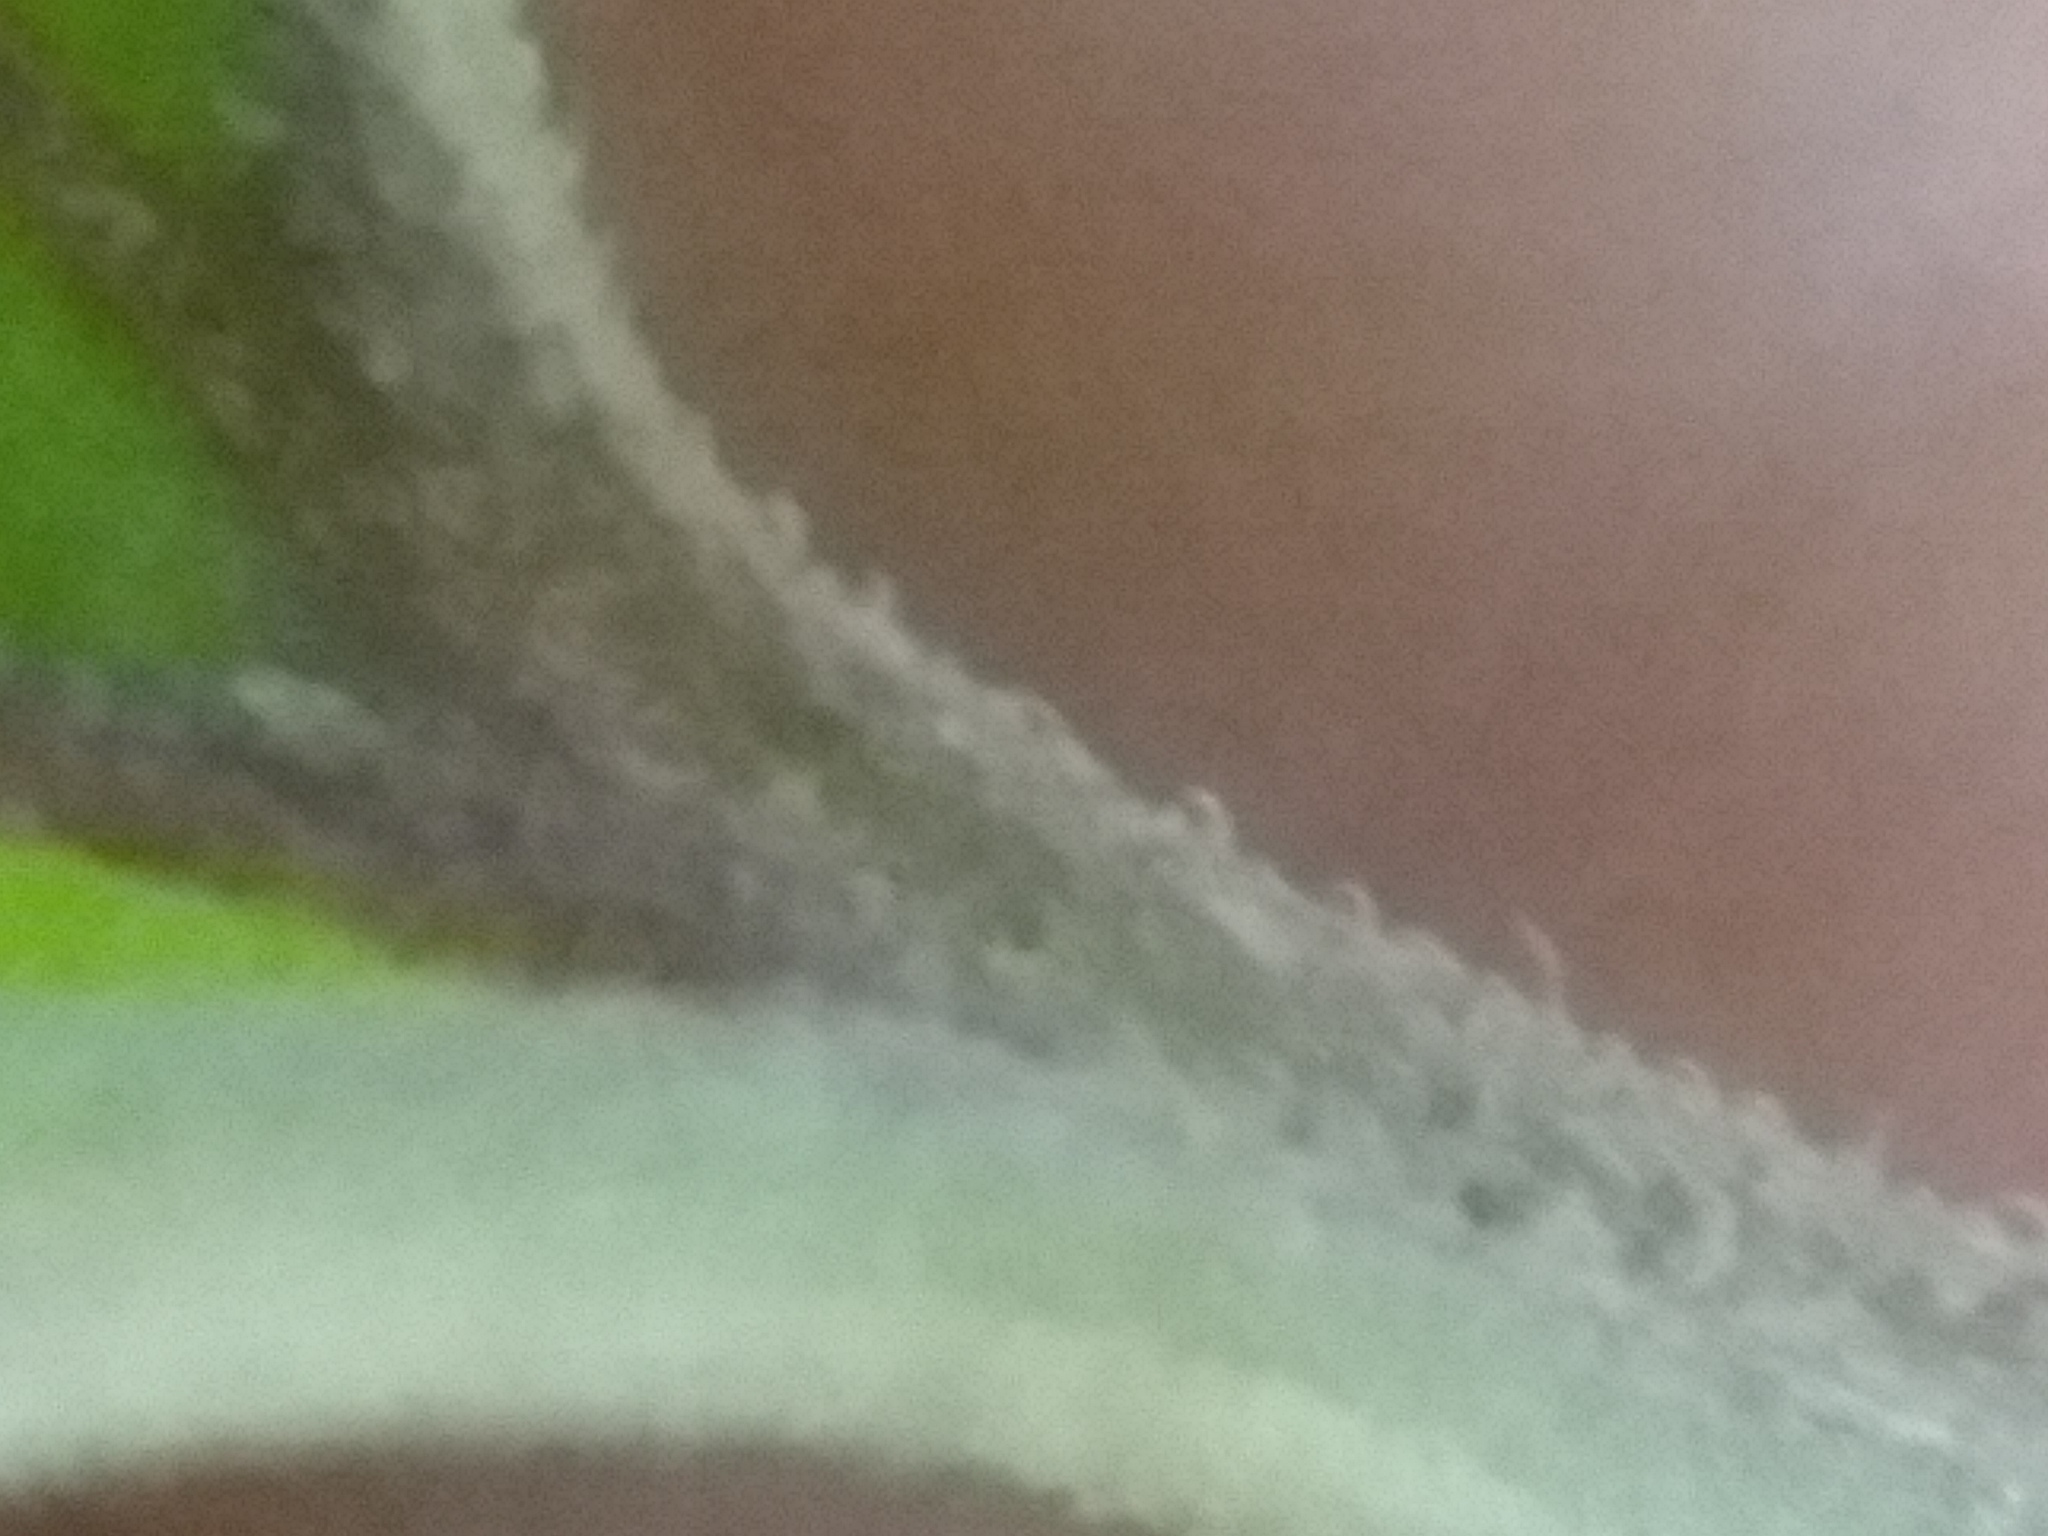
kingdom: Plantae
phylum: Tracheophyta
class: Magnoliopsida
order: Solanales
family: Solanaceae
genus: Physalis
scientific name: Physalis cordata
